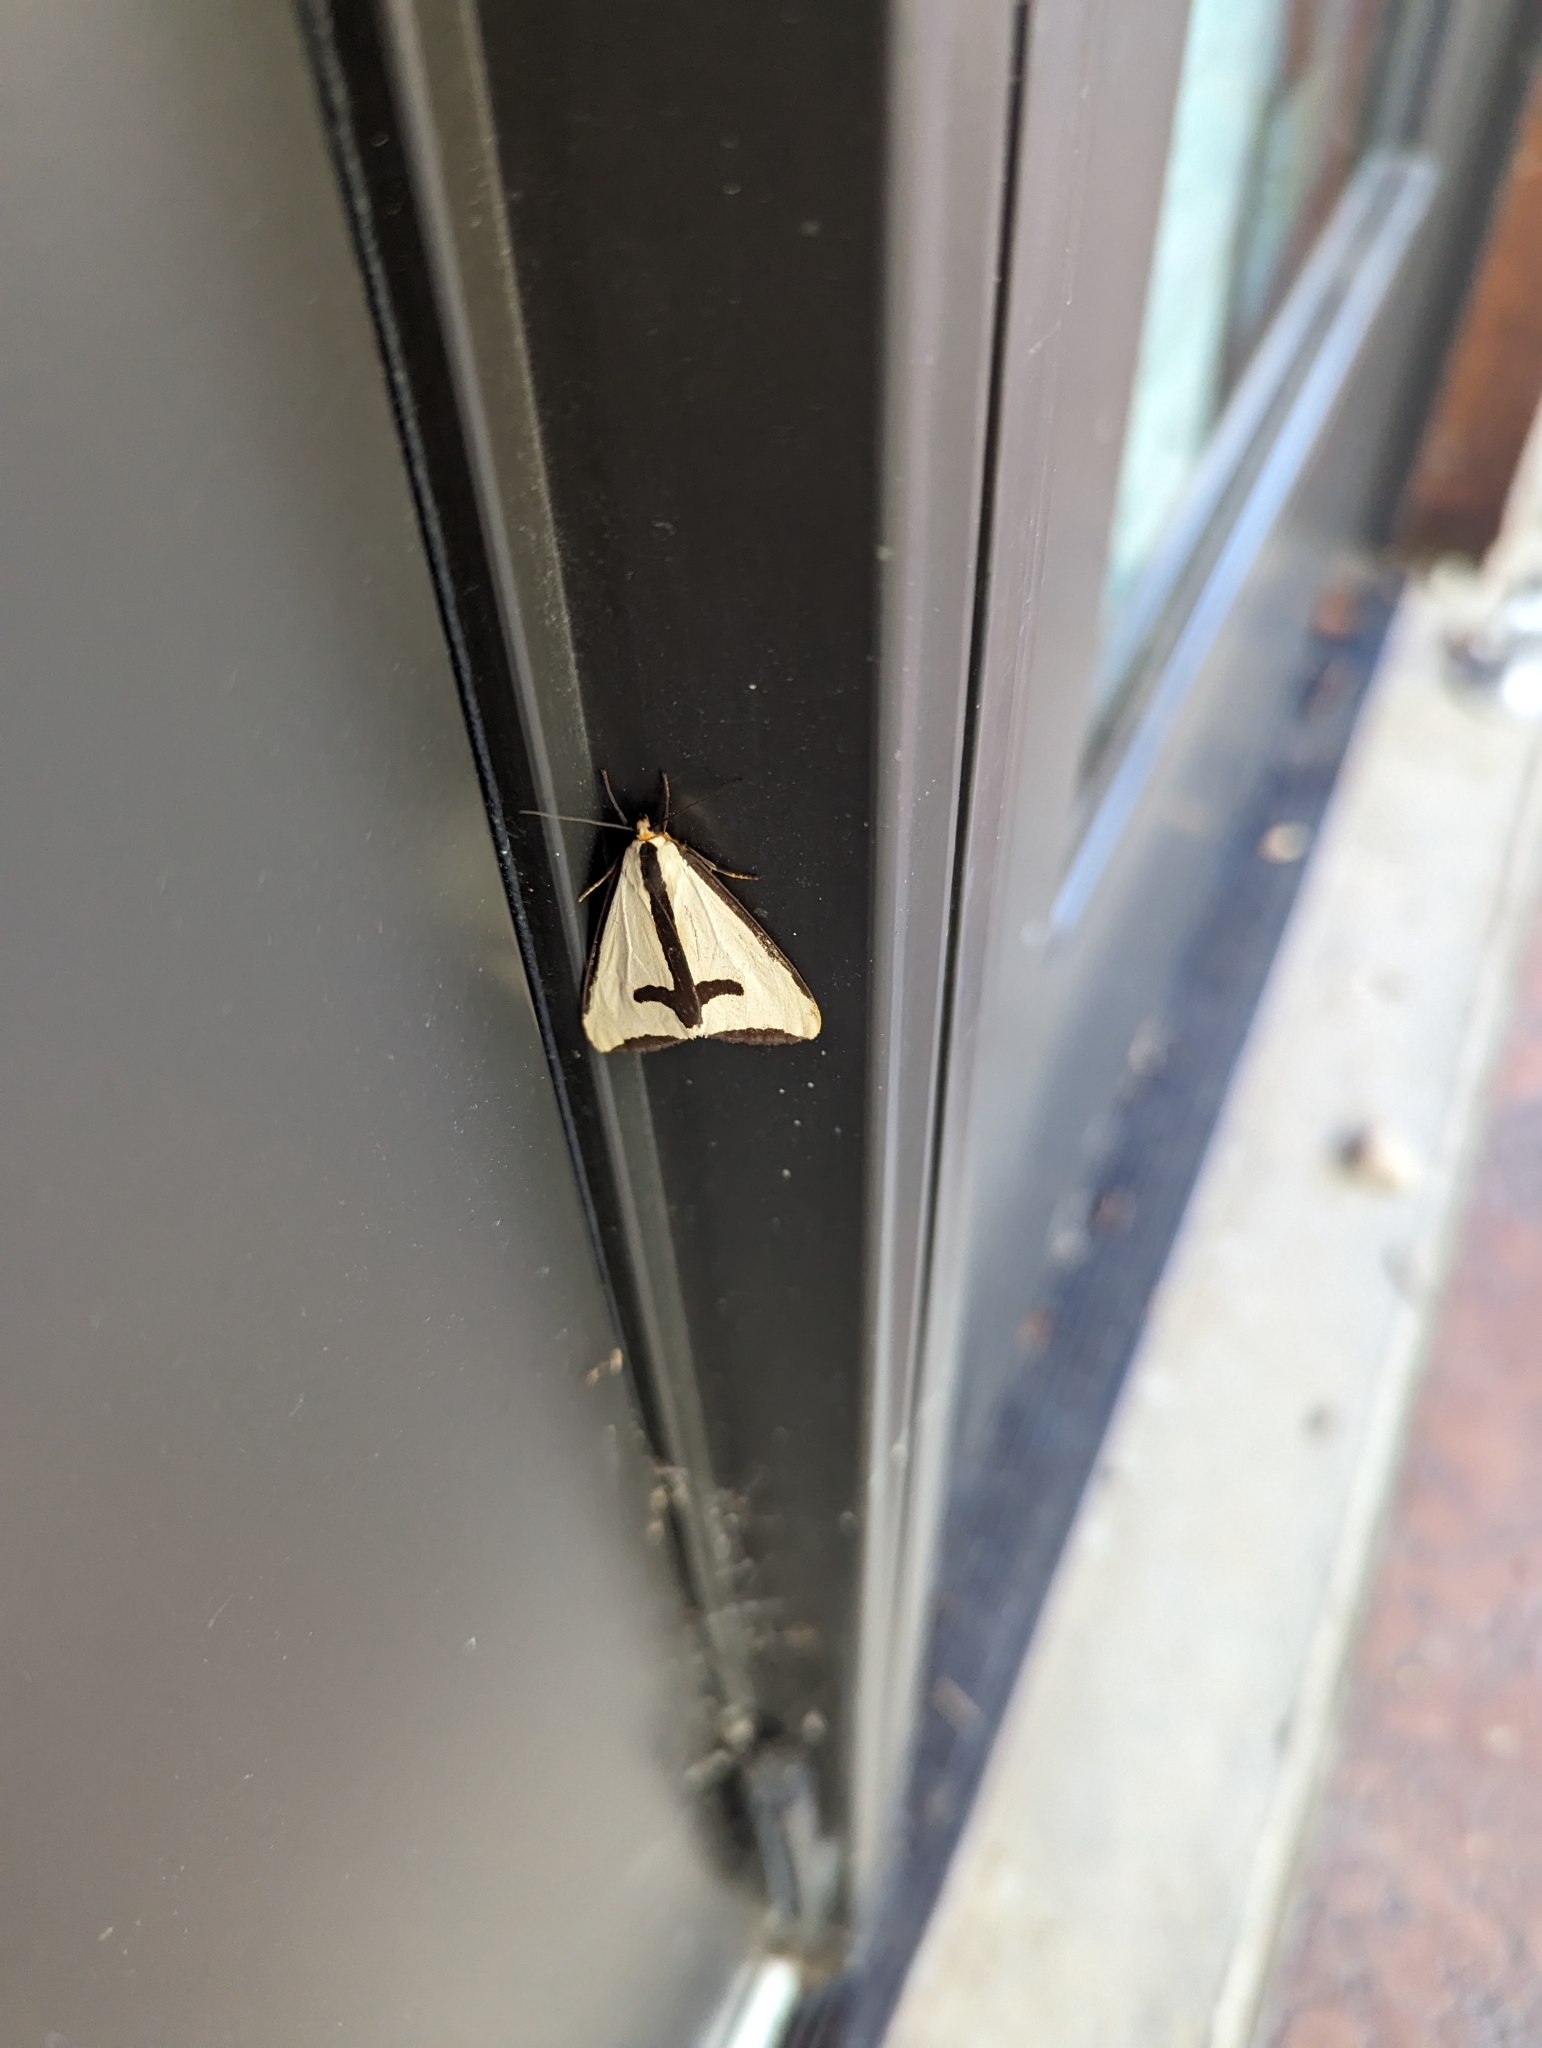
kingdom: Animalia
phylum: Arthropoda
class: Insecta
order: Lepidoptera
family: Erebidae
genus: Haploa
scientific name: Haploa clymene
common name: Clymene moth
